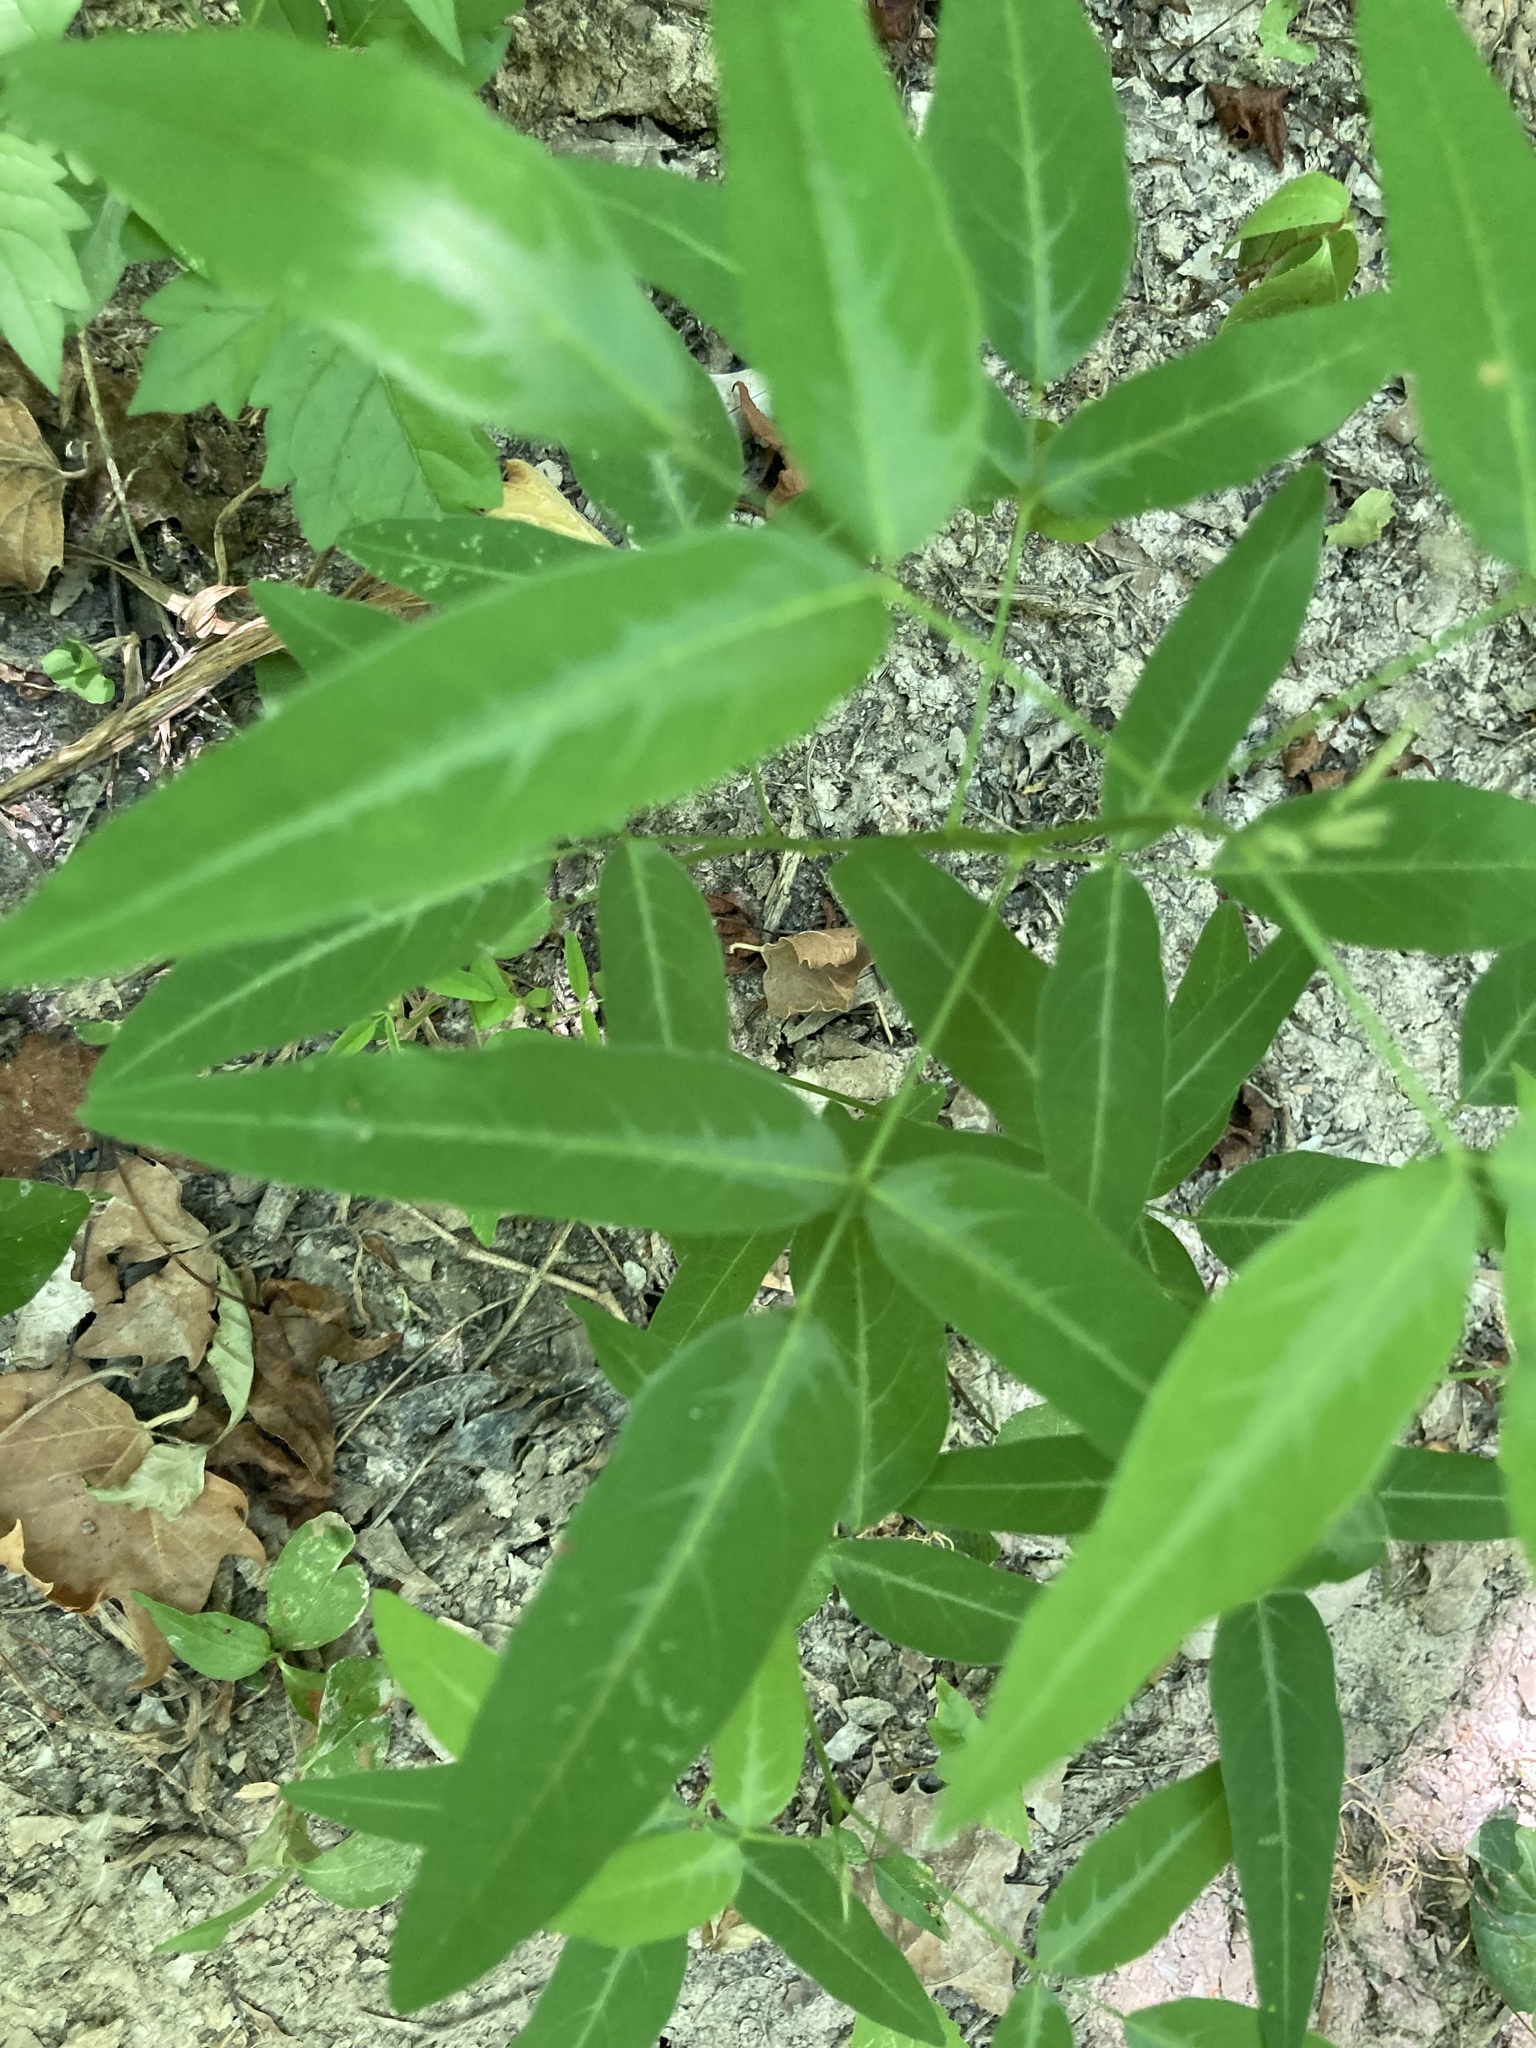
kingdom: Plantae
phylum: Tracheophyta
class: Magnoliopsida
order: Fabales
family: Fabaceae
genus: Desmodium
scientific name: Desmodium paniculatum
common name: Panicled tick-clover
